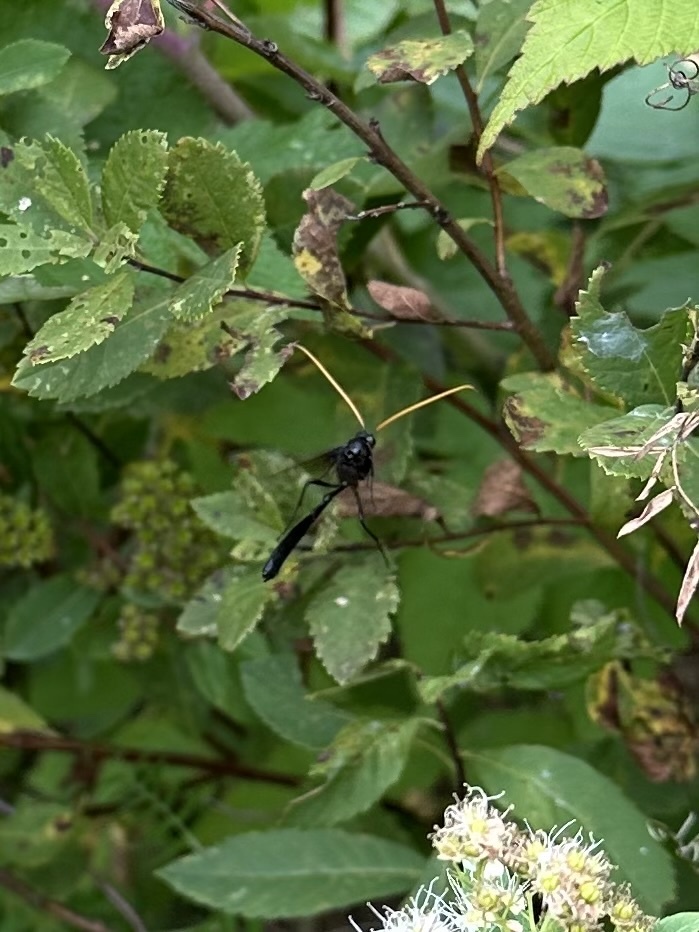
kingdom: Animalia
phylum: Arthropoda
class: Insecta
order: Hymenoptera
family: Ichneumonidae
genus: Thyreodon
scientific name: Thyreodon atricolor
